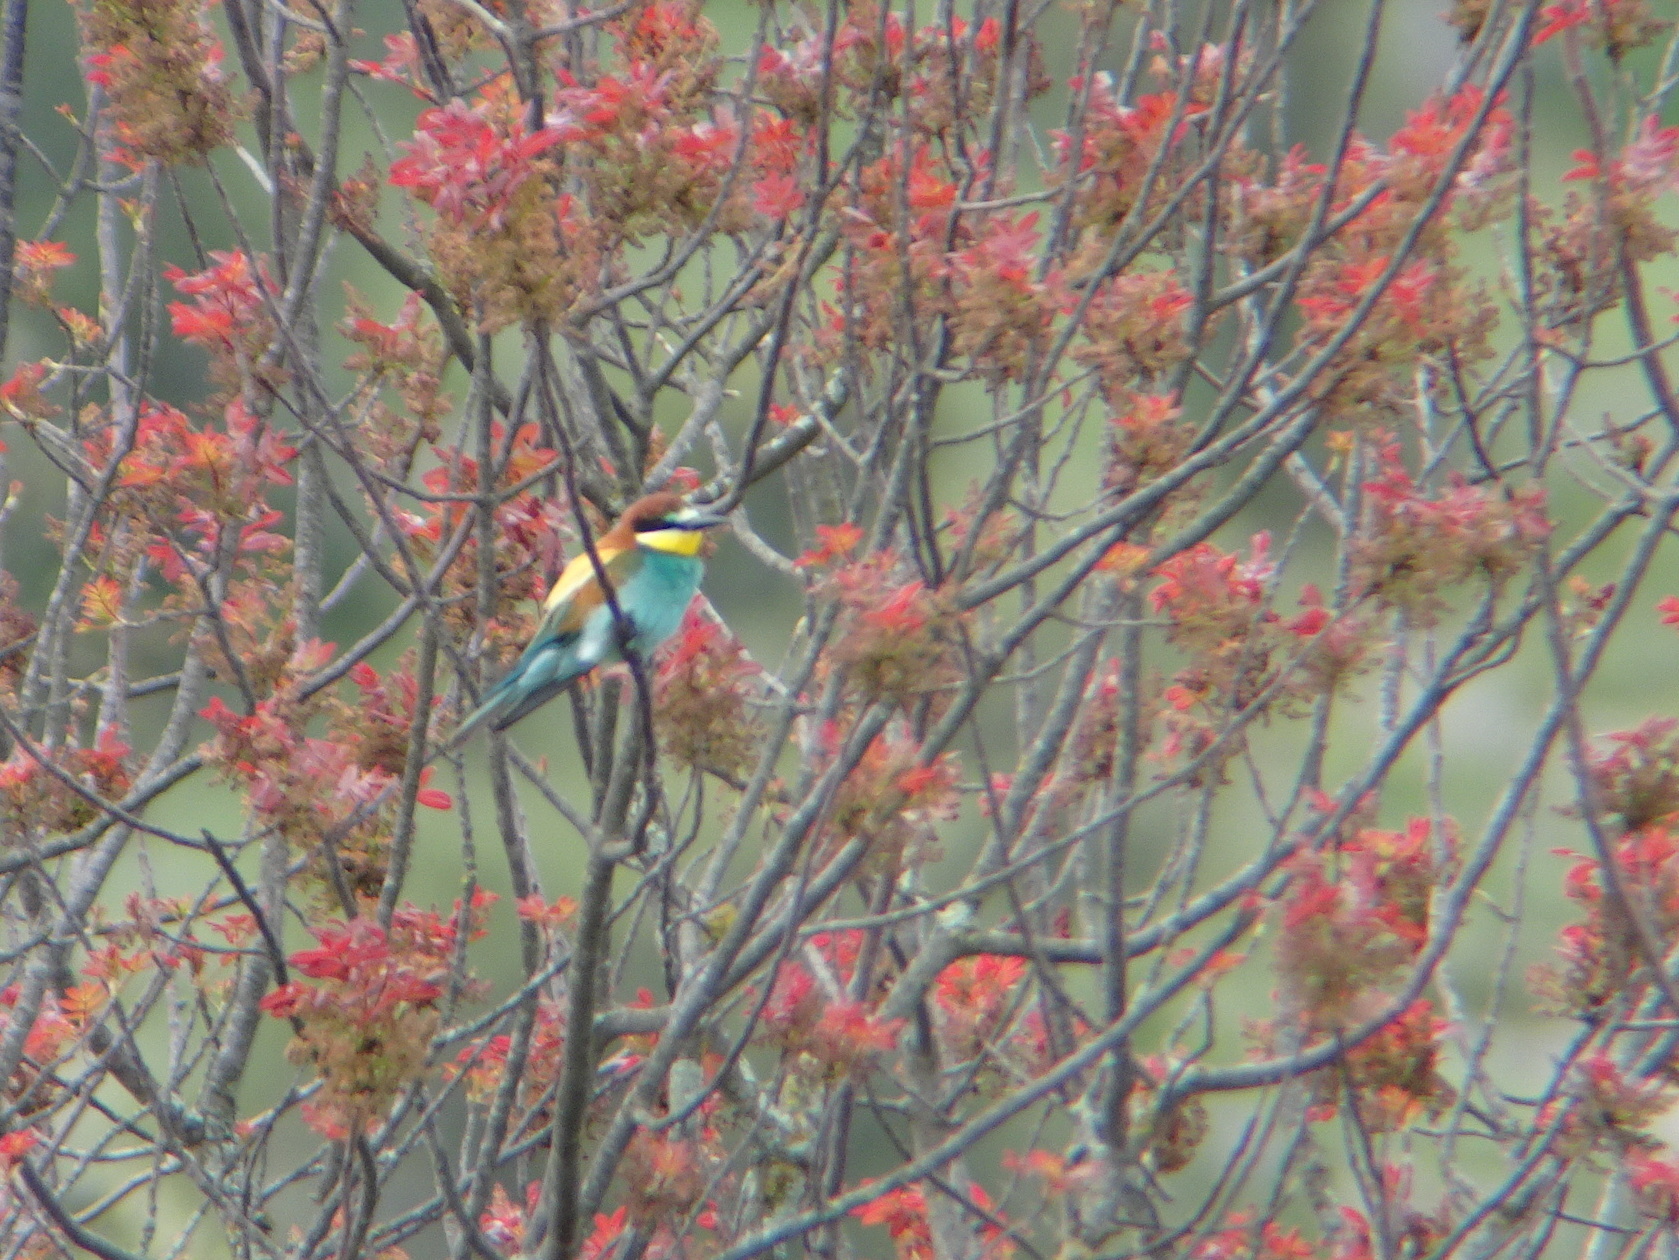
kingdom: Animalia
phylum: Chordata
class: Aves
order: Coraciiformes
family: Meropidae
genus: Merops
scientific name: Merops apiaster
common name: European bee-eater
